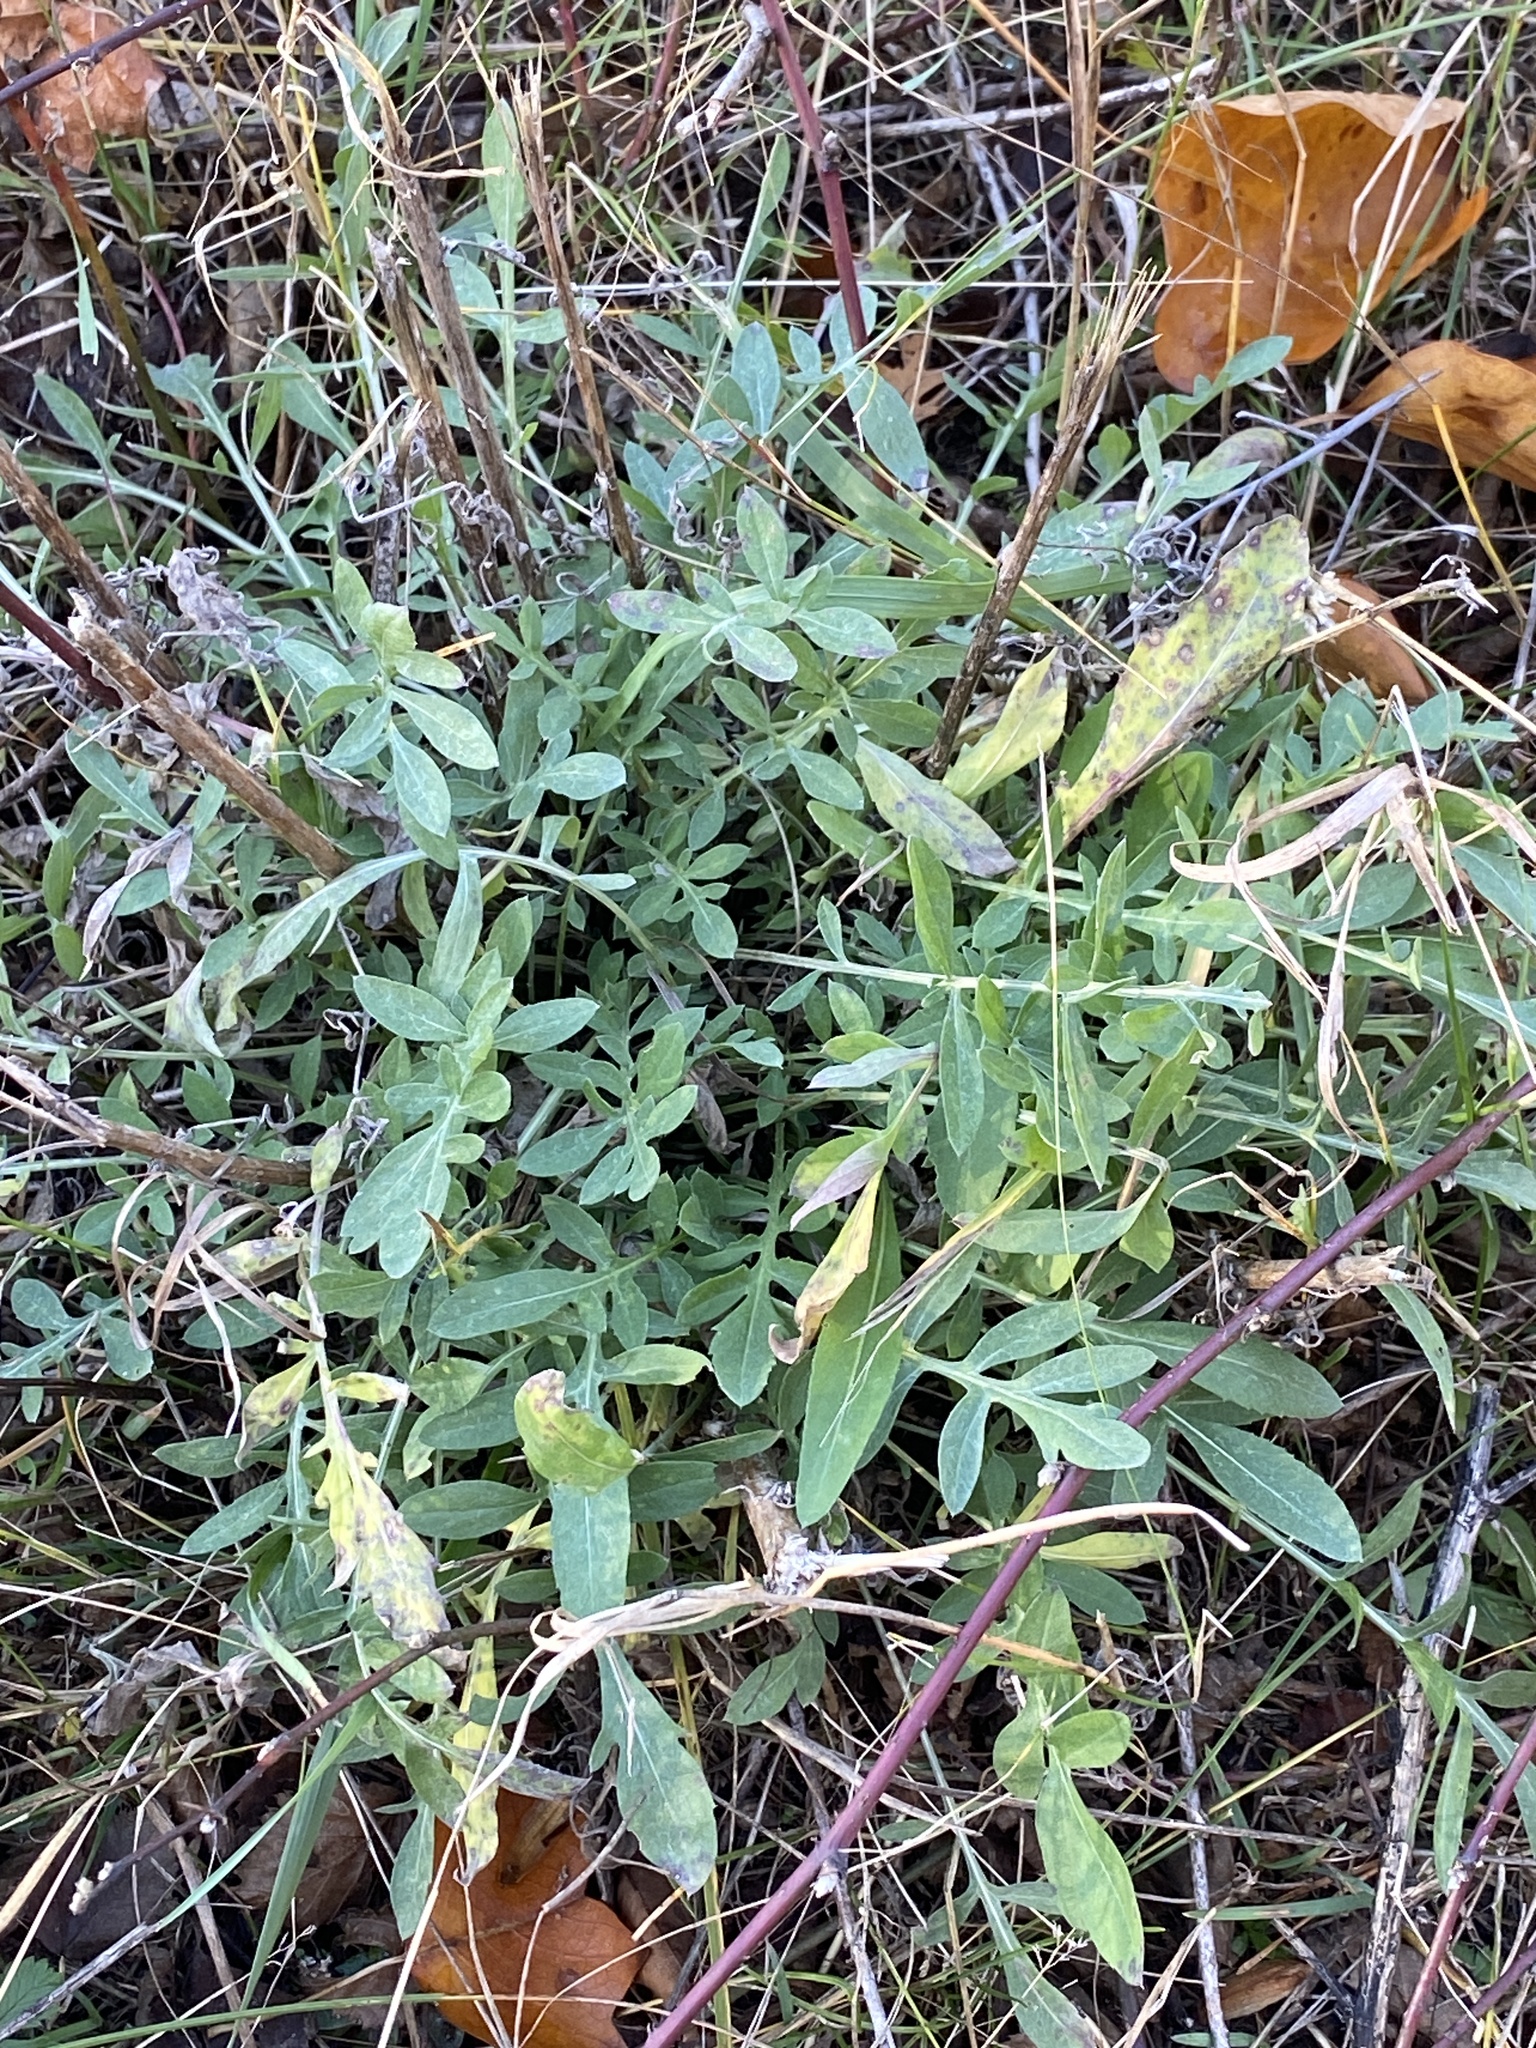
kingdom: Plantae
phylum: Tracheophyta
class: Magnoliopsida
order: Asterales
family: Asteraceae
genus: Centaurea
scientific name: Centaurea stoebe
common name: Spotted knapweed
